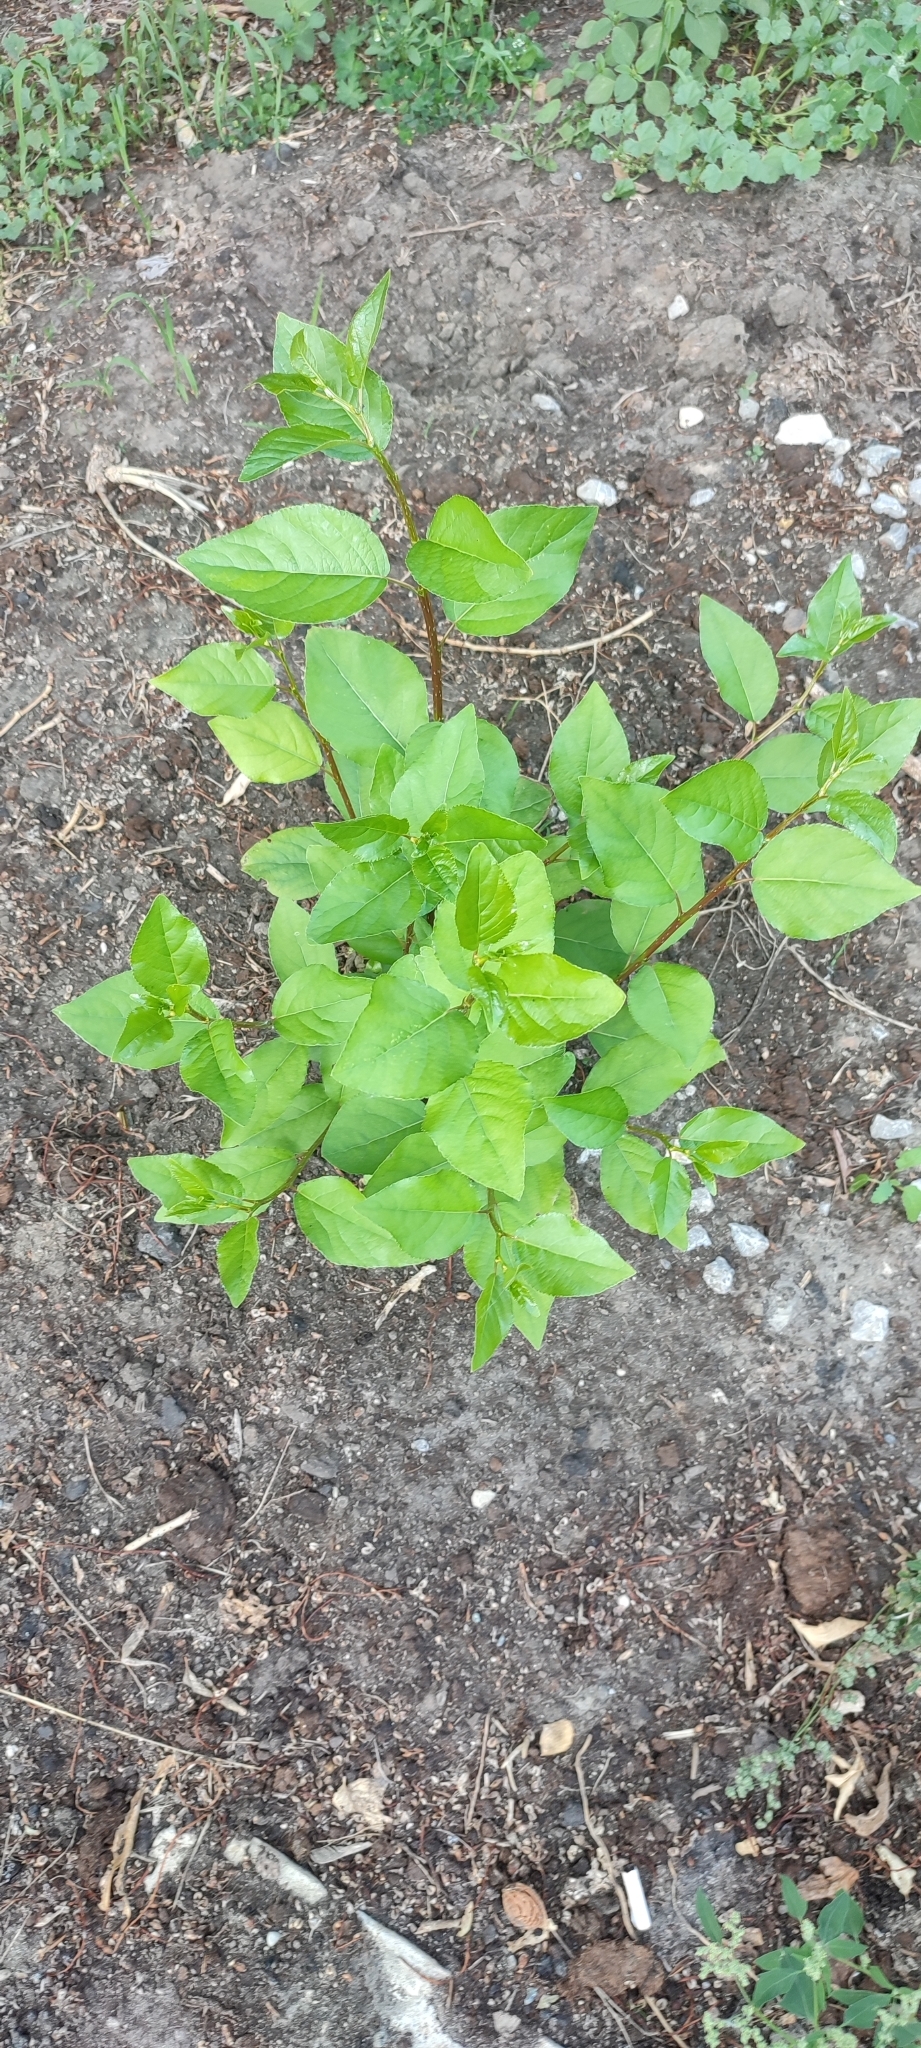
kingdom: Plantae
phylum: Tracheophyta
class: Magnoliopsida
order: Malpighiales
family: Salicaceae
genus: Populus
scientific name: Populus sibirica
